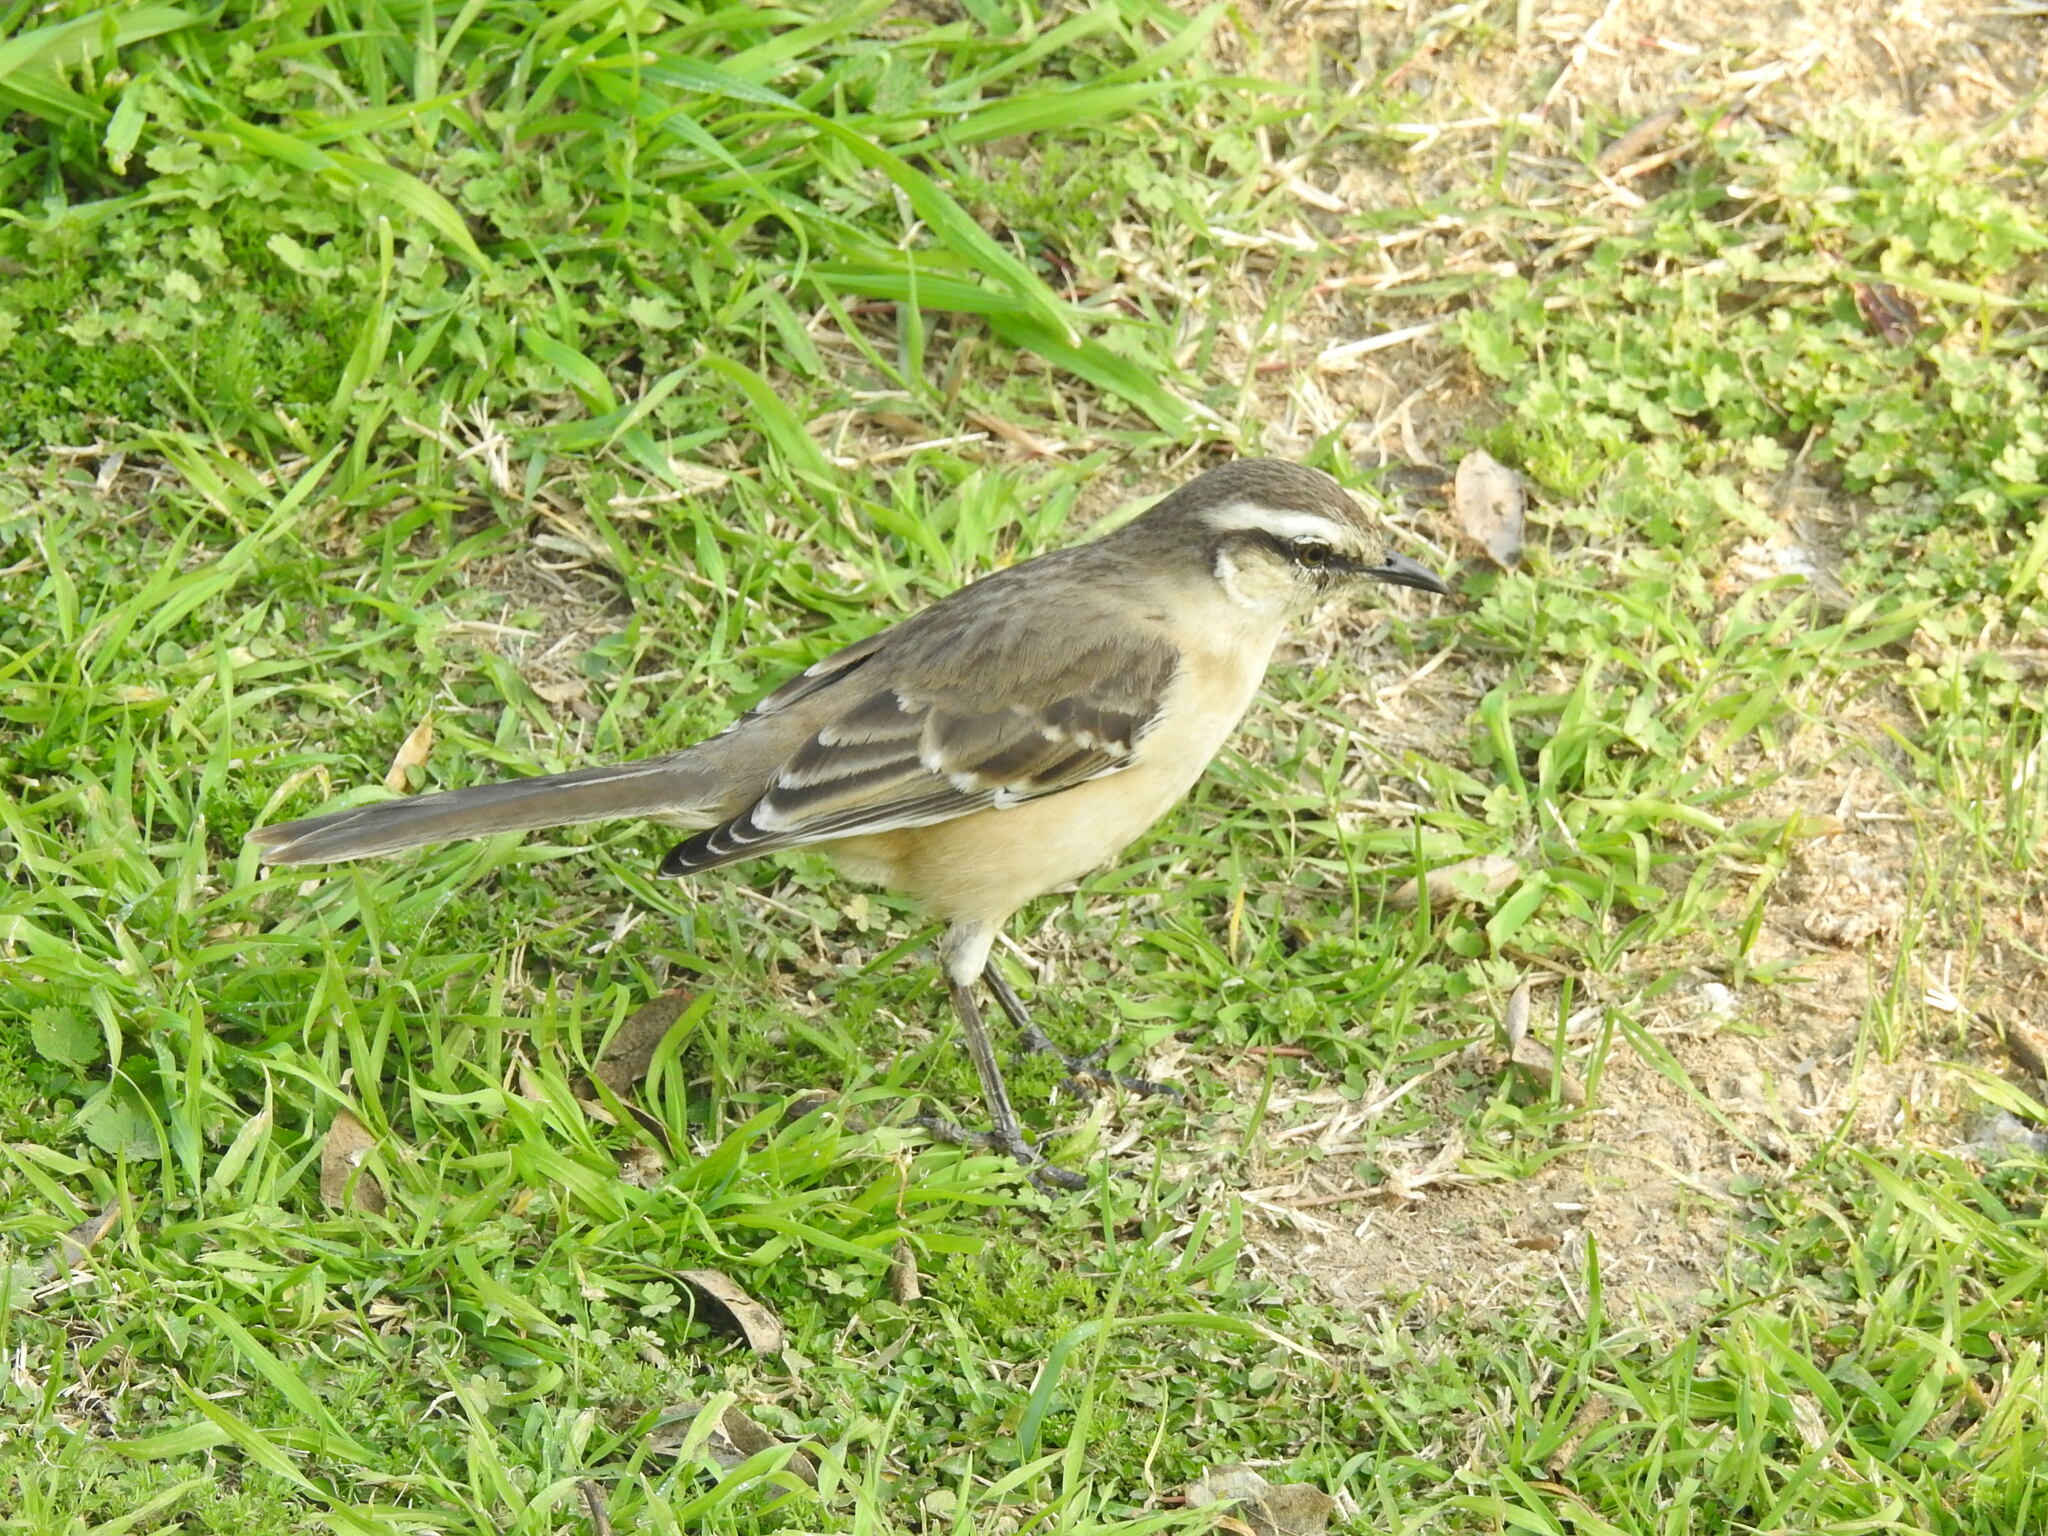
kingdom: Animalia
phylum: Chordata
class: Aves
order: Passeriformes
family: Mimidae
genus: Mimus
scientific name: Mimus saturninus
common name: Chalk-browed mockingbird
